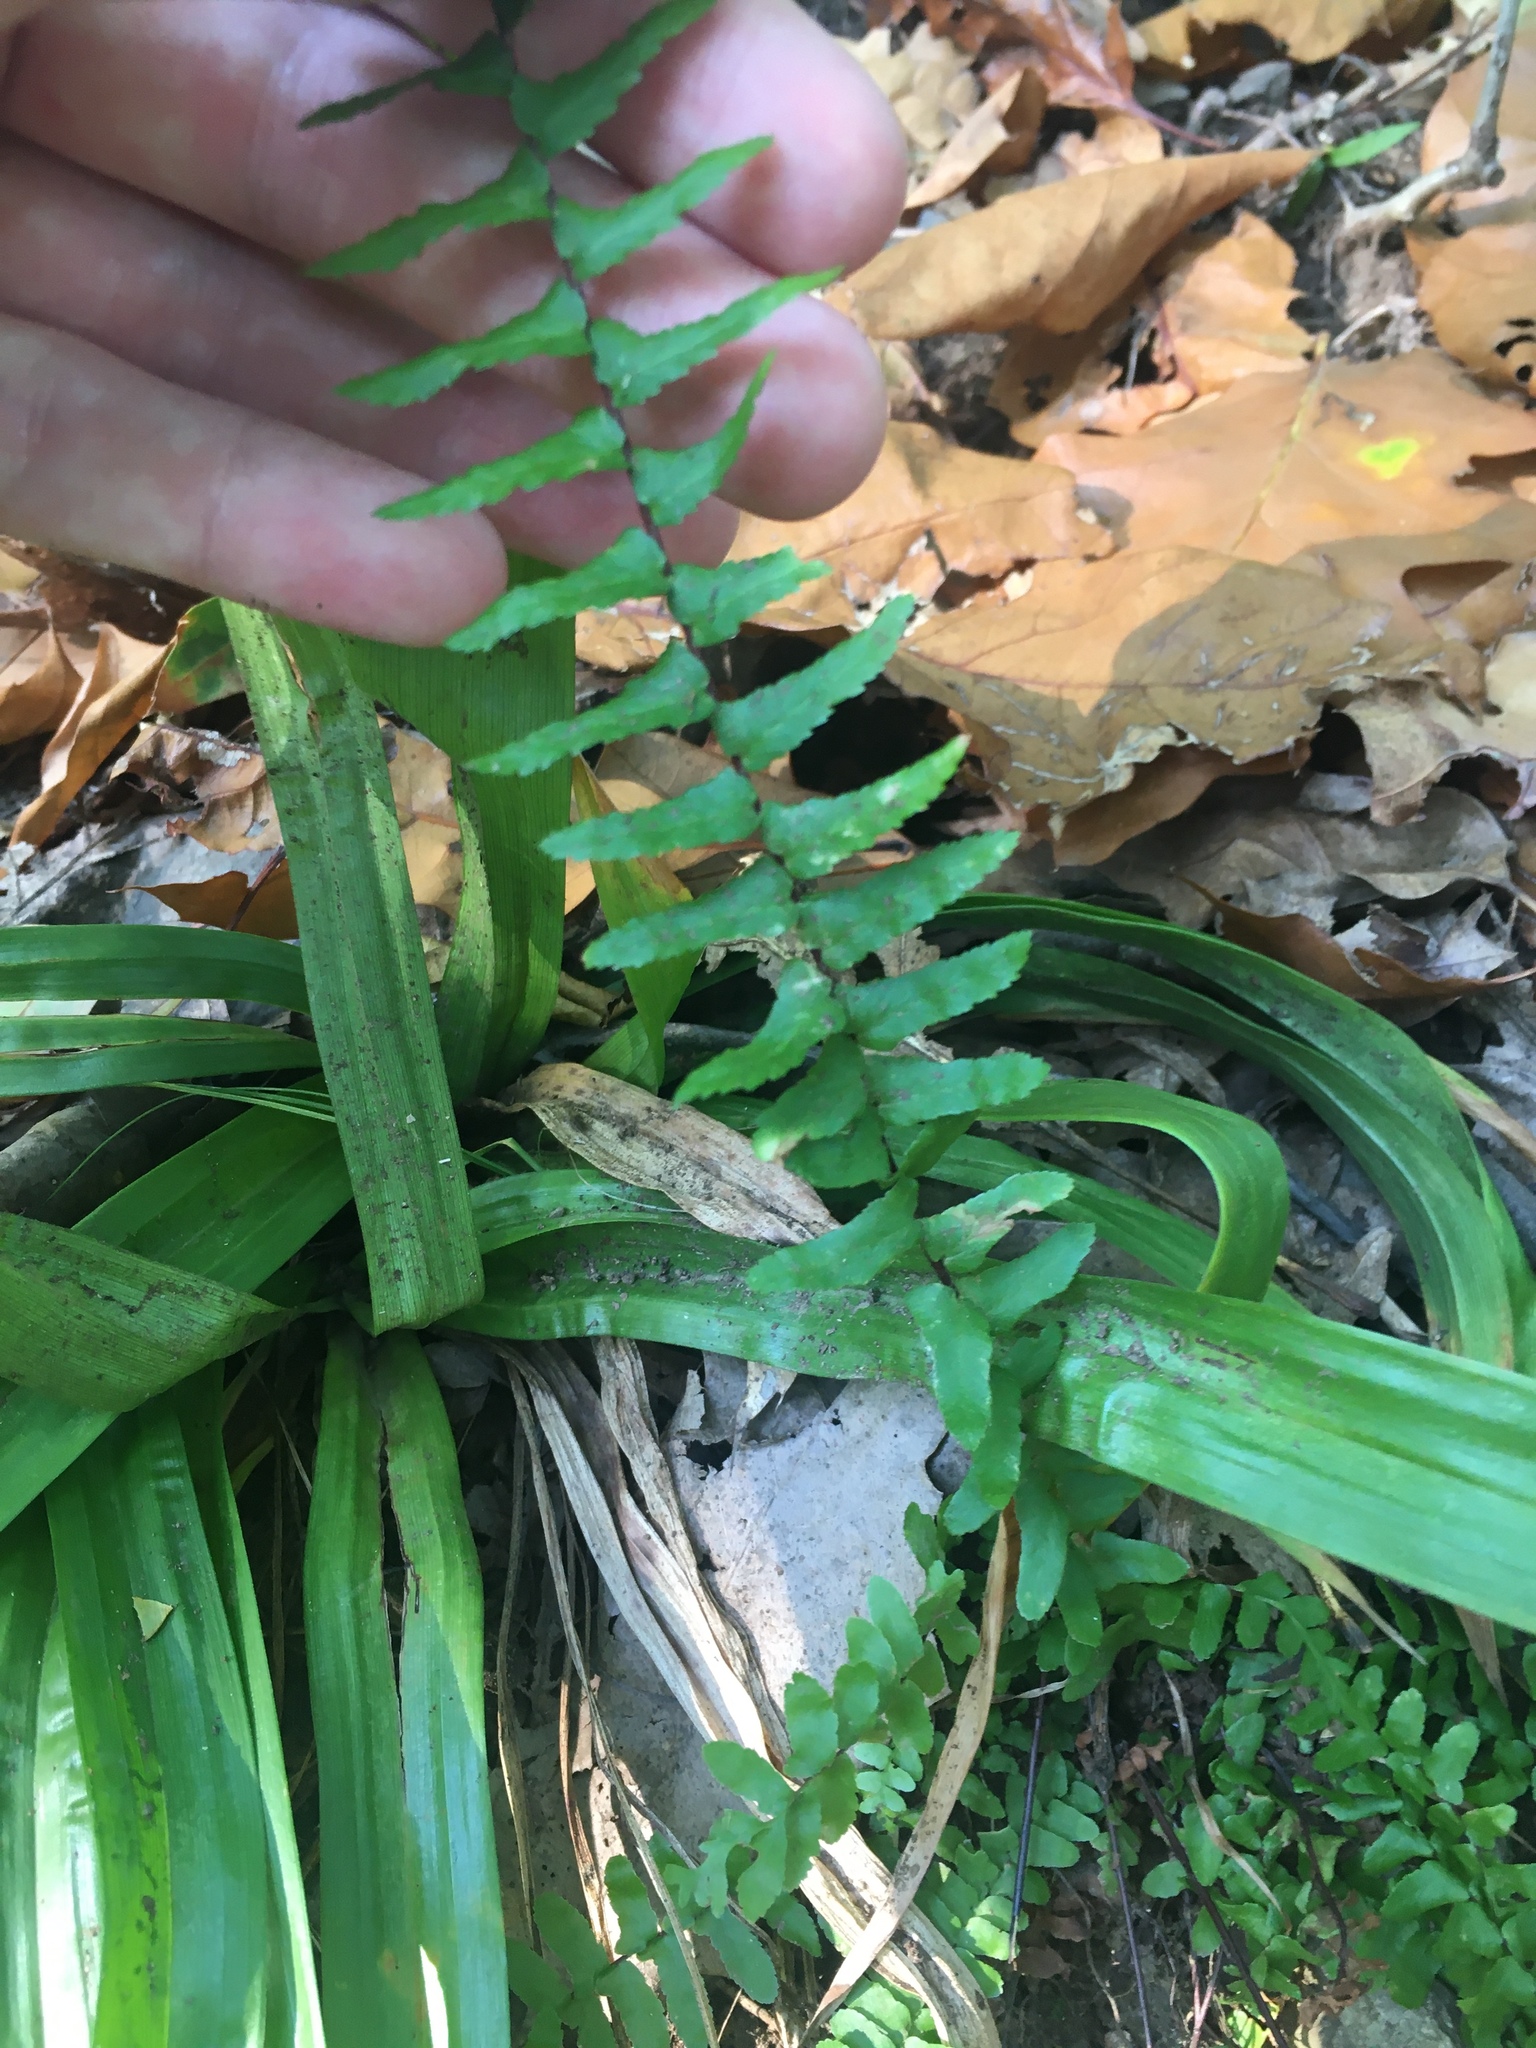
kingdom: Plantae
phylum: Tracheophyta
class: Polypodiopsida
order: Polypodiales
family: Aspleniaceae
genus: Asplenium
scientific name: Asplenium platyneuron
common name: Ebony spleenwort
